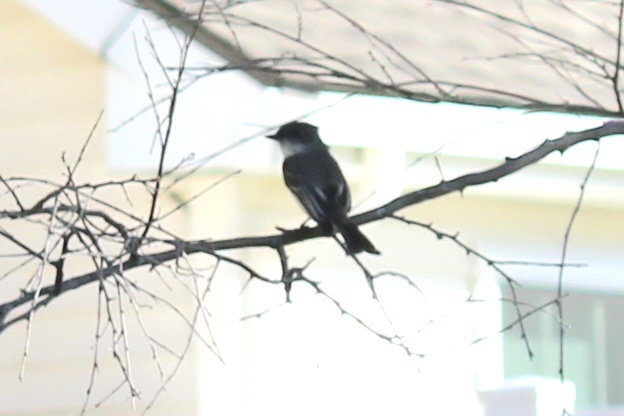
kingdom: Animalia
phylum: Chordata
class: Aves
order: Passeriformes
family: Tyrannidae
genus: Sayornis
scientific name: Sayornis phoebe
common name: Eastern phoebe
